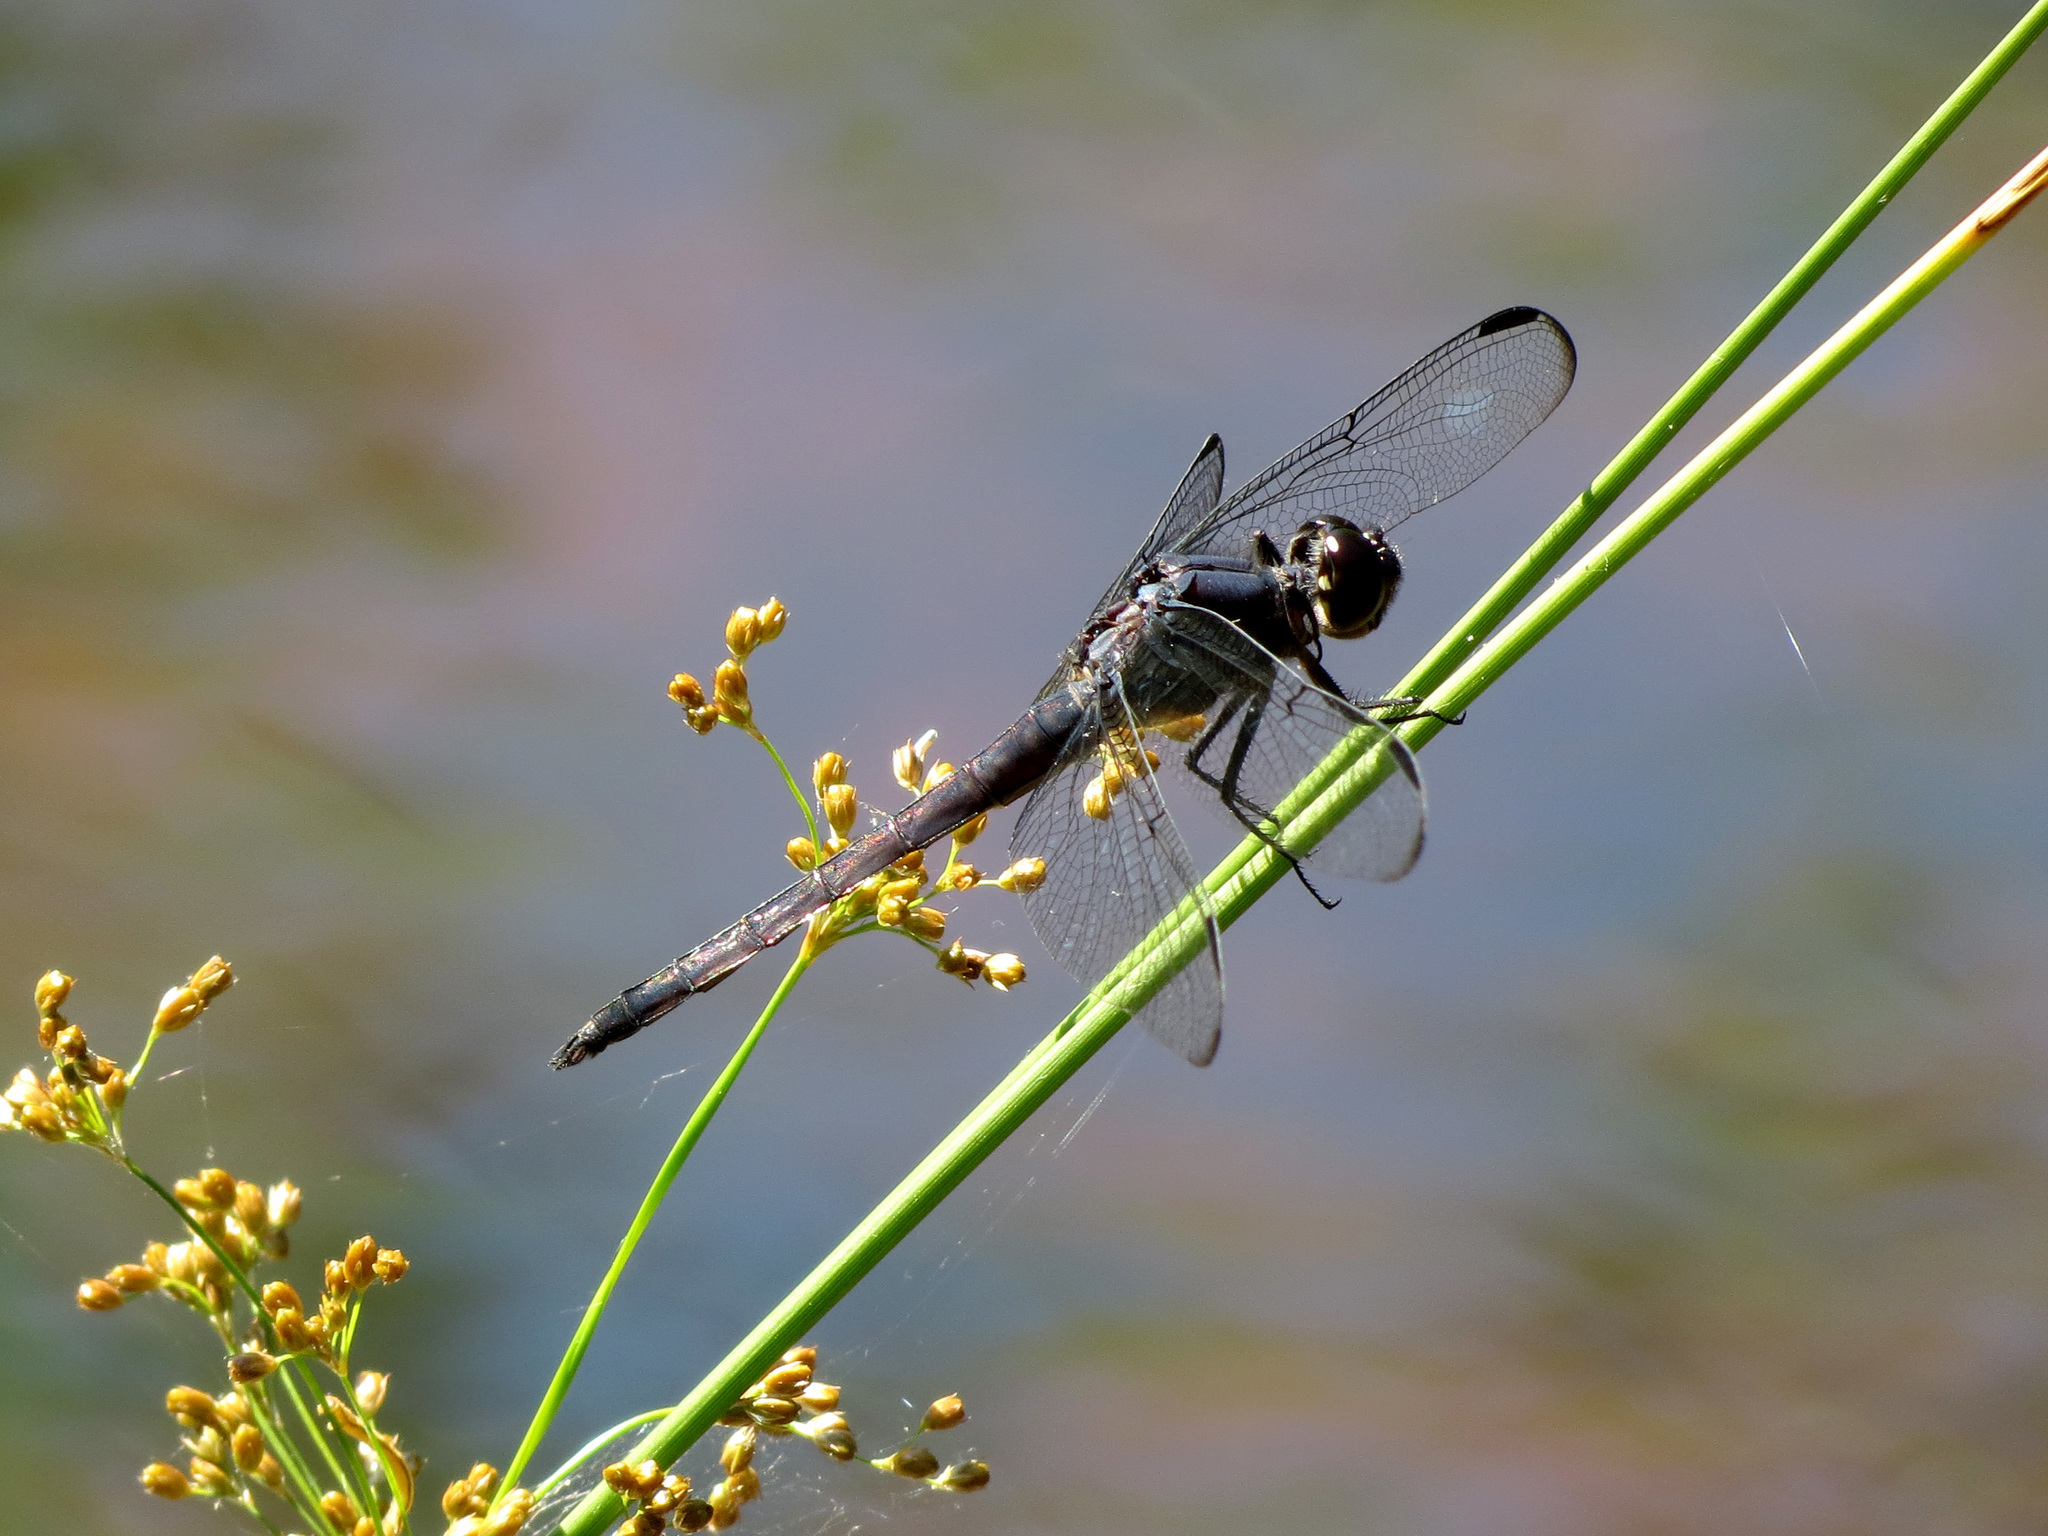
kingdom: Animalia
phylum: Arthropoda
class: Insecta
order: Odonata
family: Libellulidae
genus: Libellula
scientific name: Libellula incesta
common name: Slaty skimmer
